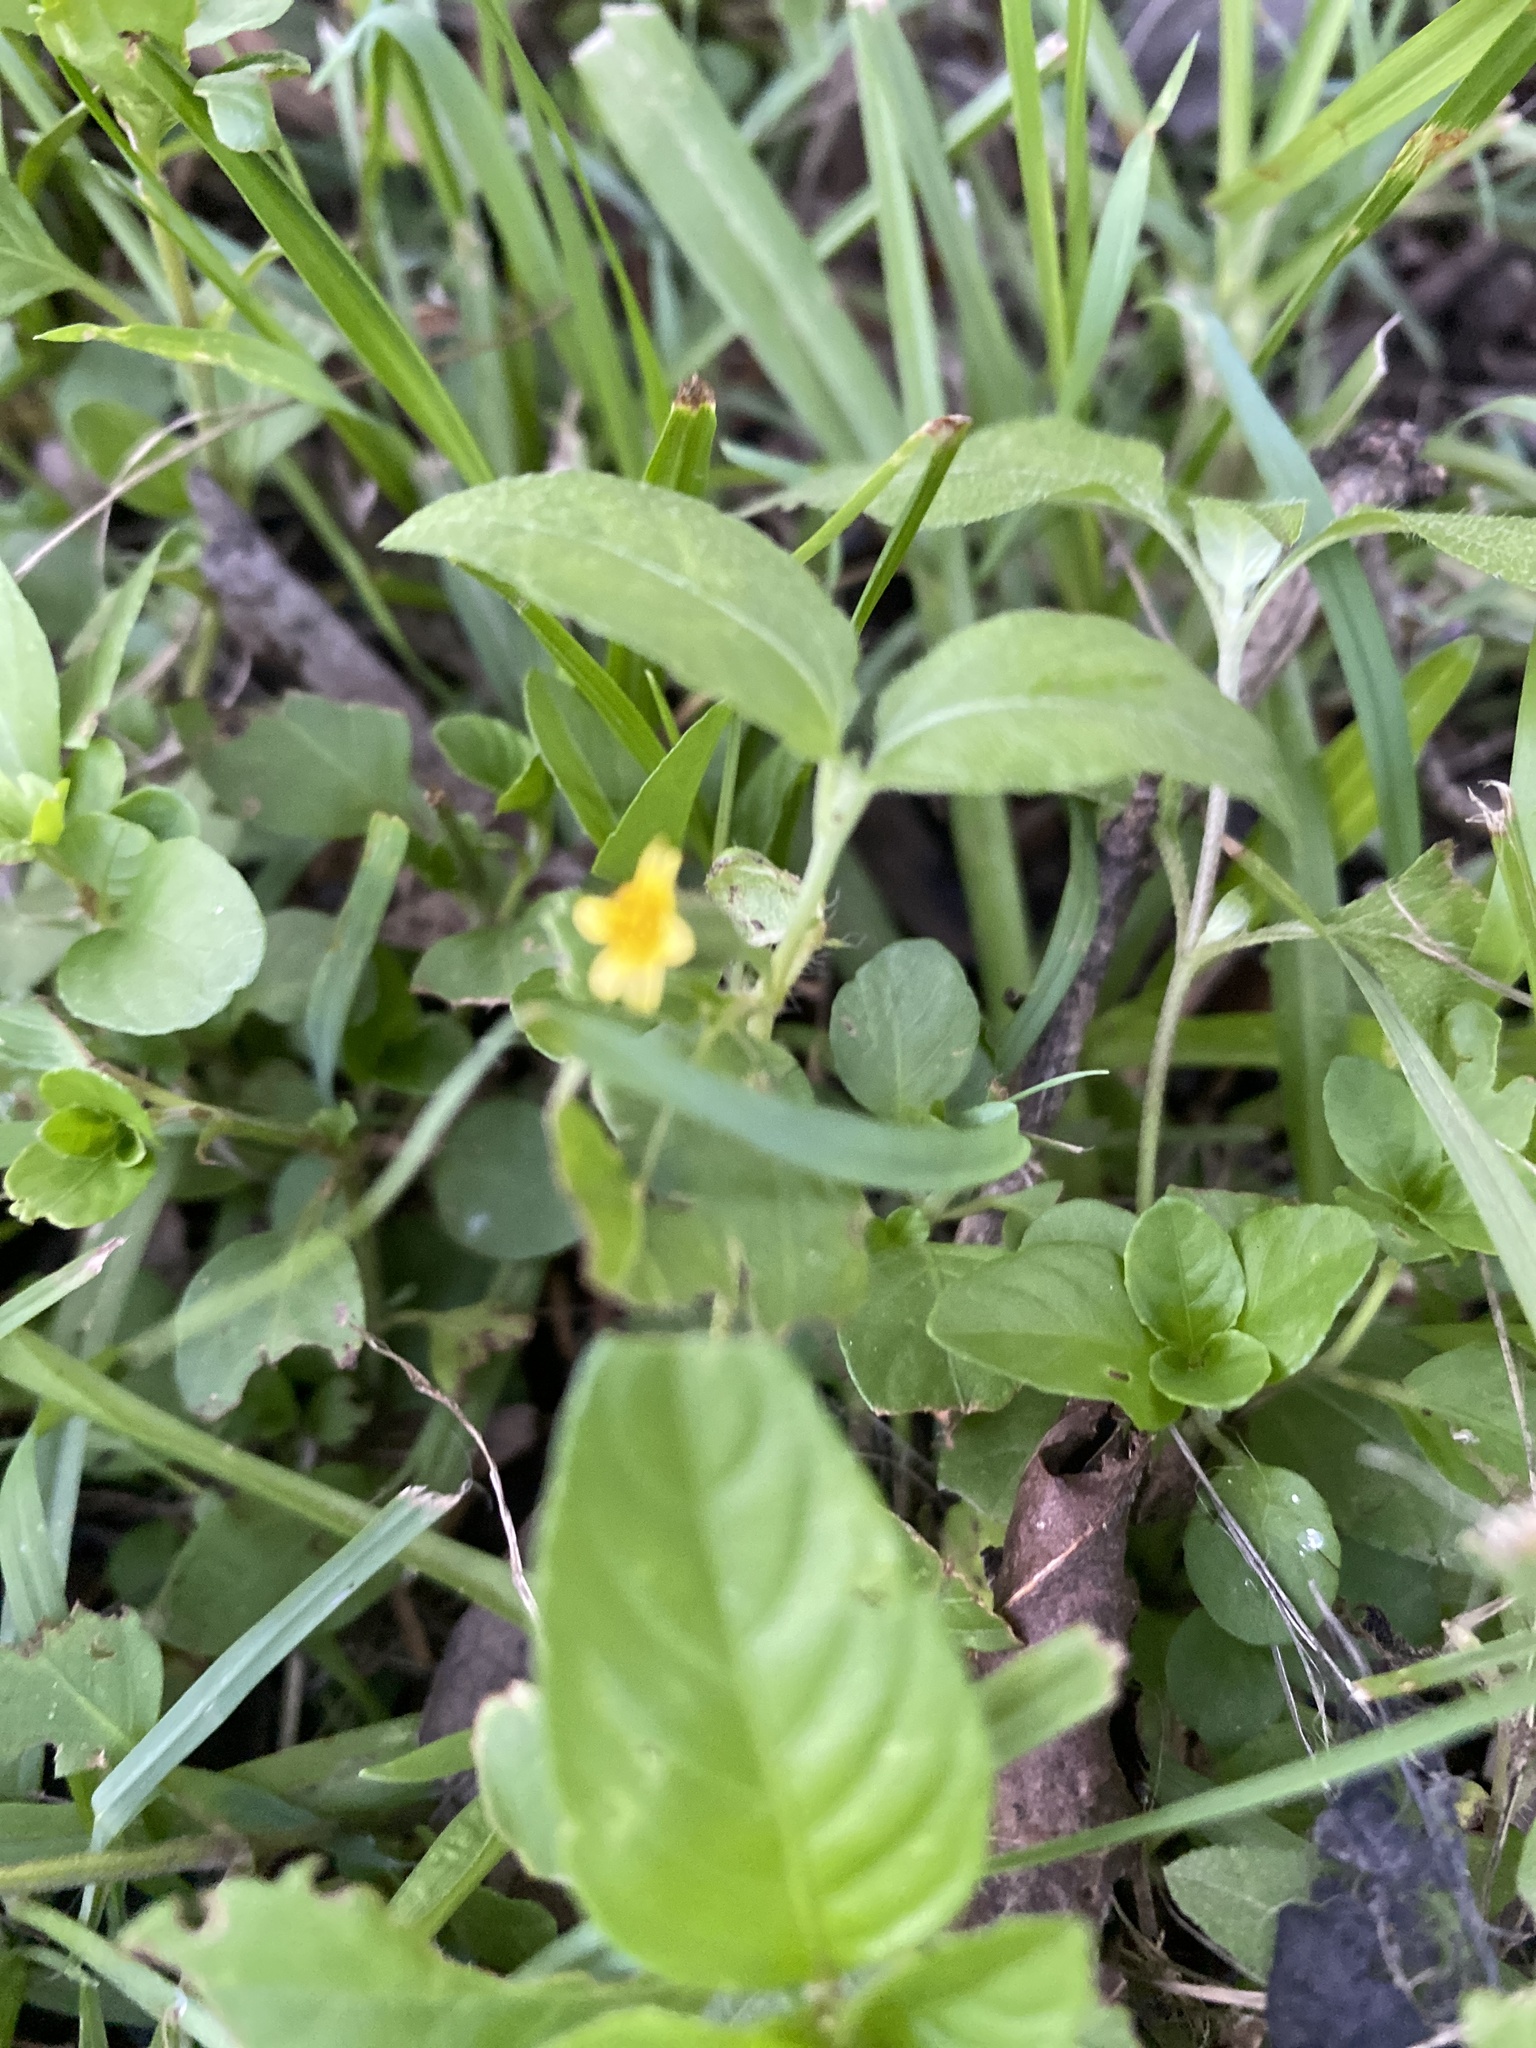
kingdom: Plantae
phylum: Tracheophyta
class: Magnoliopsida
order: Asterales
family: Asteraceae
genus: Calyptocarpus
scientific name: Calyptocarpus vialis
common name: Straggler daisy
